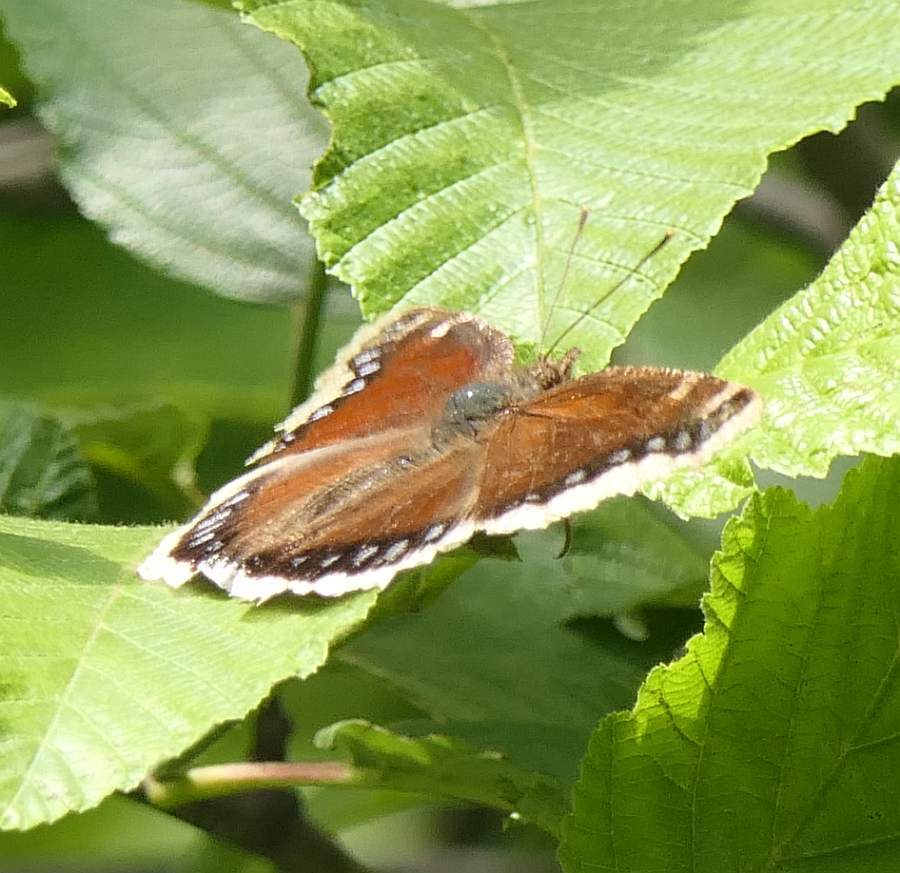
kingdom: Animalia
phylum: Arthropoda
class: Insecta
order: Lepidoptera
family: Nymphalidae
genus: Nymphalis
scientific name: Nymphalis antiopa
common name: Camberwell beauty
